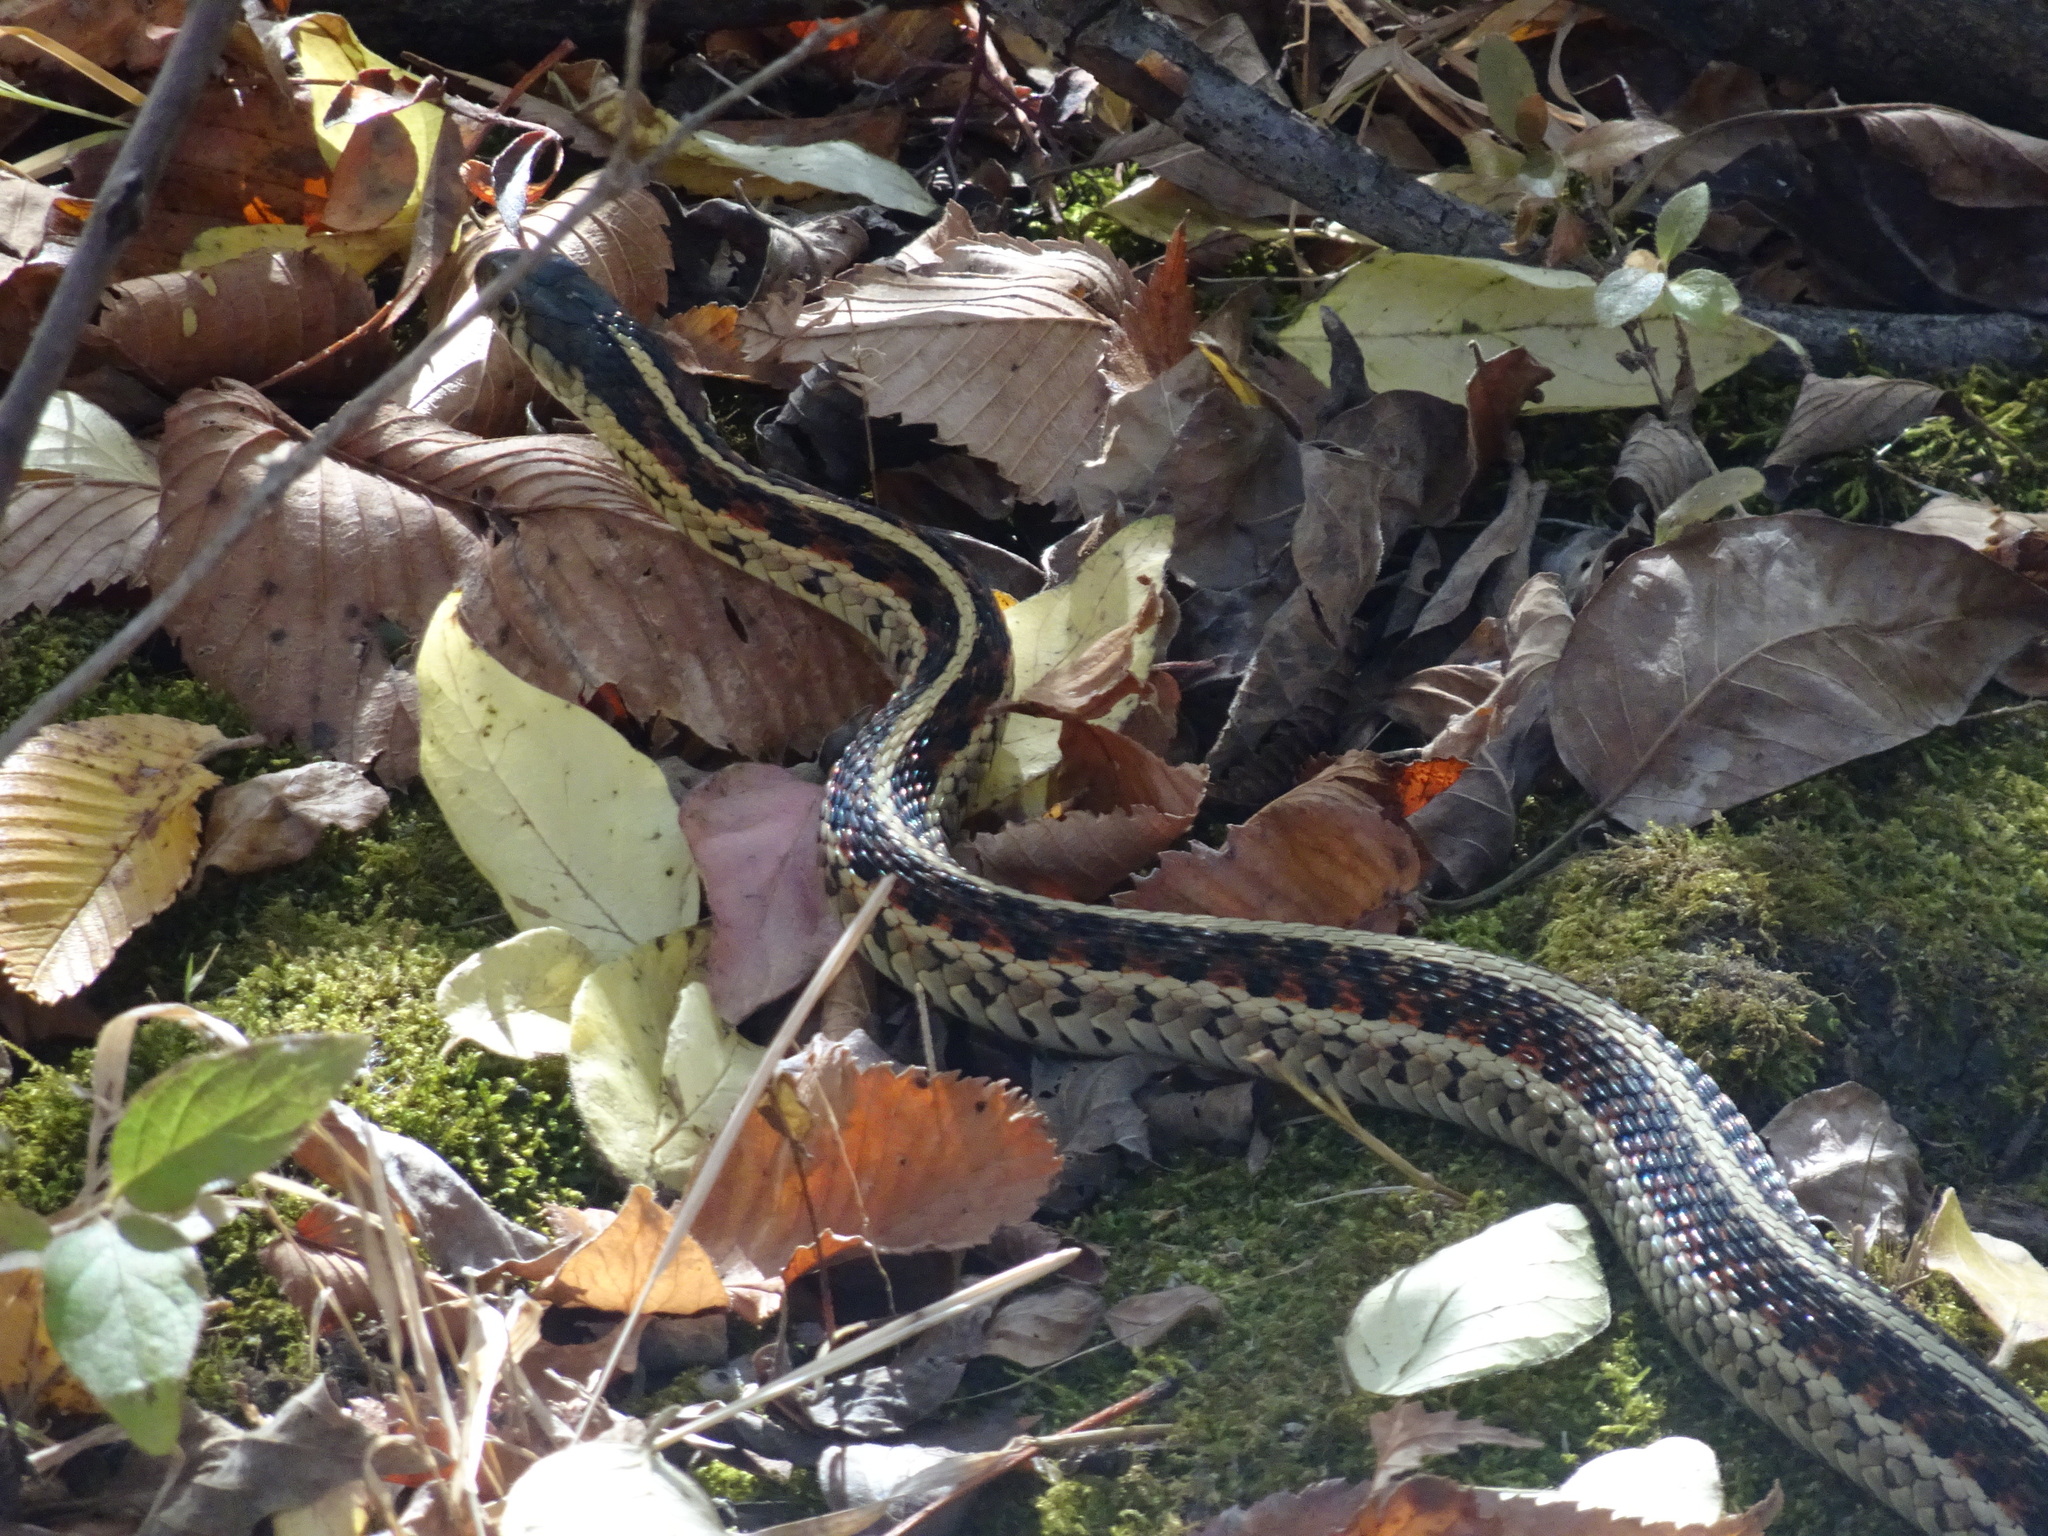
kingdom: Animalia
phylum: Chordata
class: Squamata
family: Colubridae
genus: Thamnophis
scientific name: Thamnophis sirtalis
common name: Common garter snake
